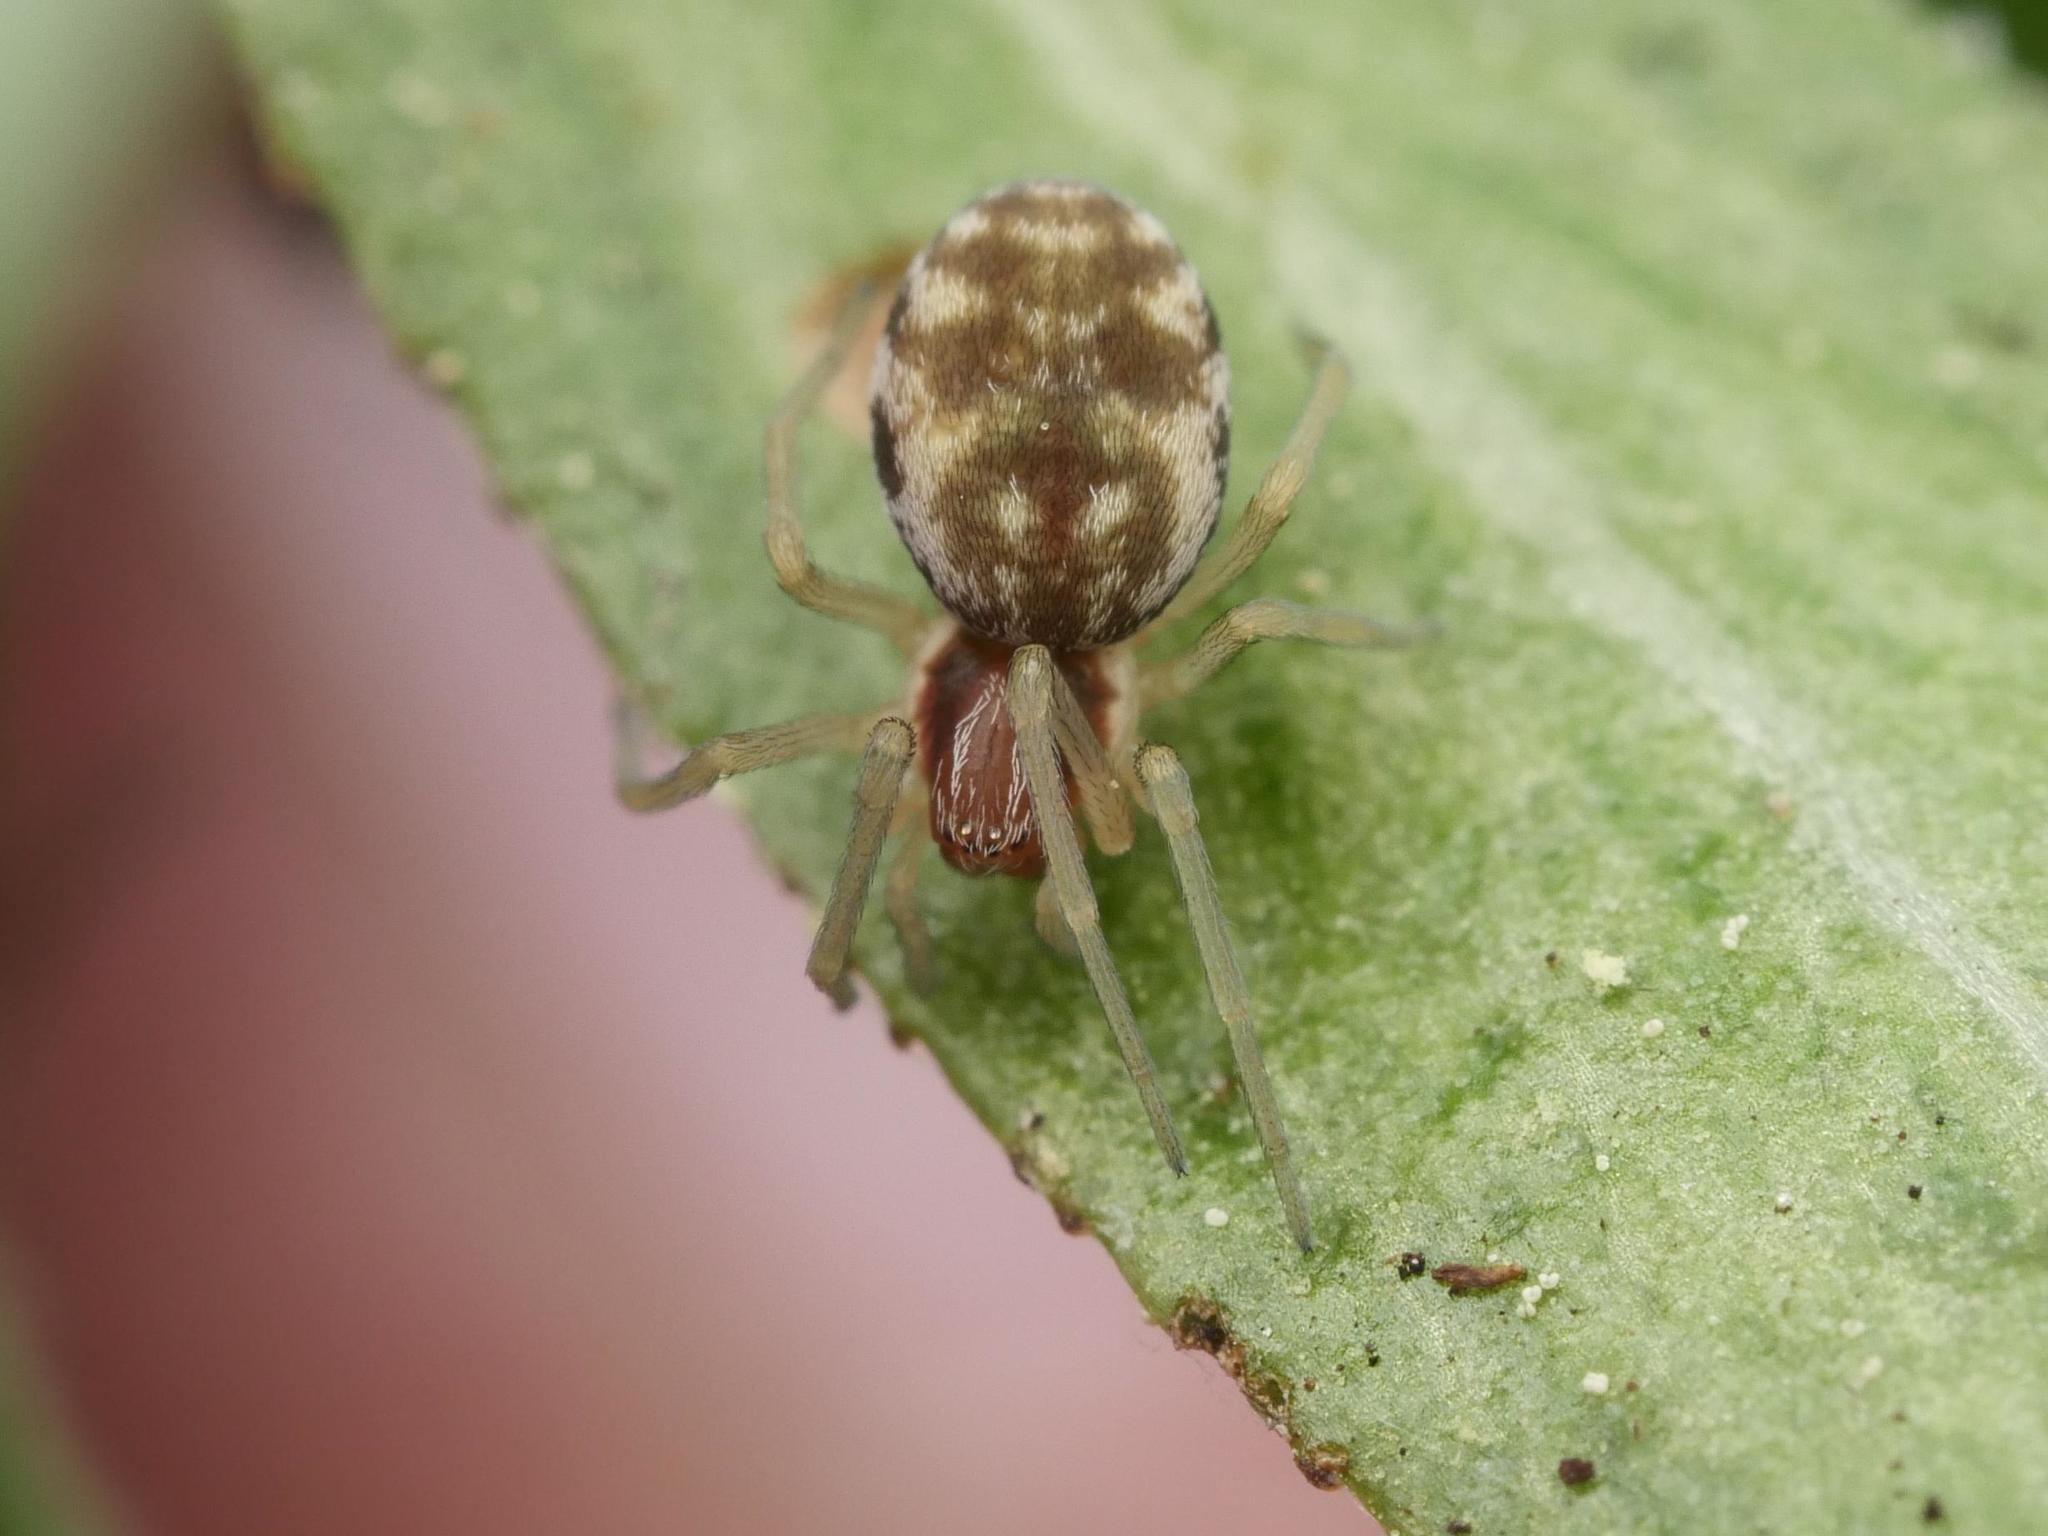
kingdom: Animalia
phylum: Arthropoda
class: Arachnida
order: Araneae
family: Dictynidae
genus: Nigma
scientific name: Nigma flavescens
